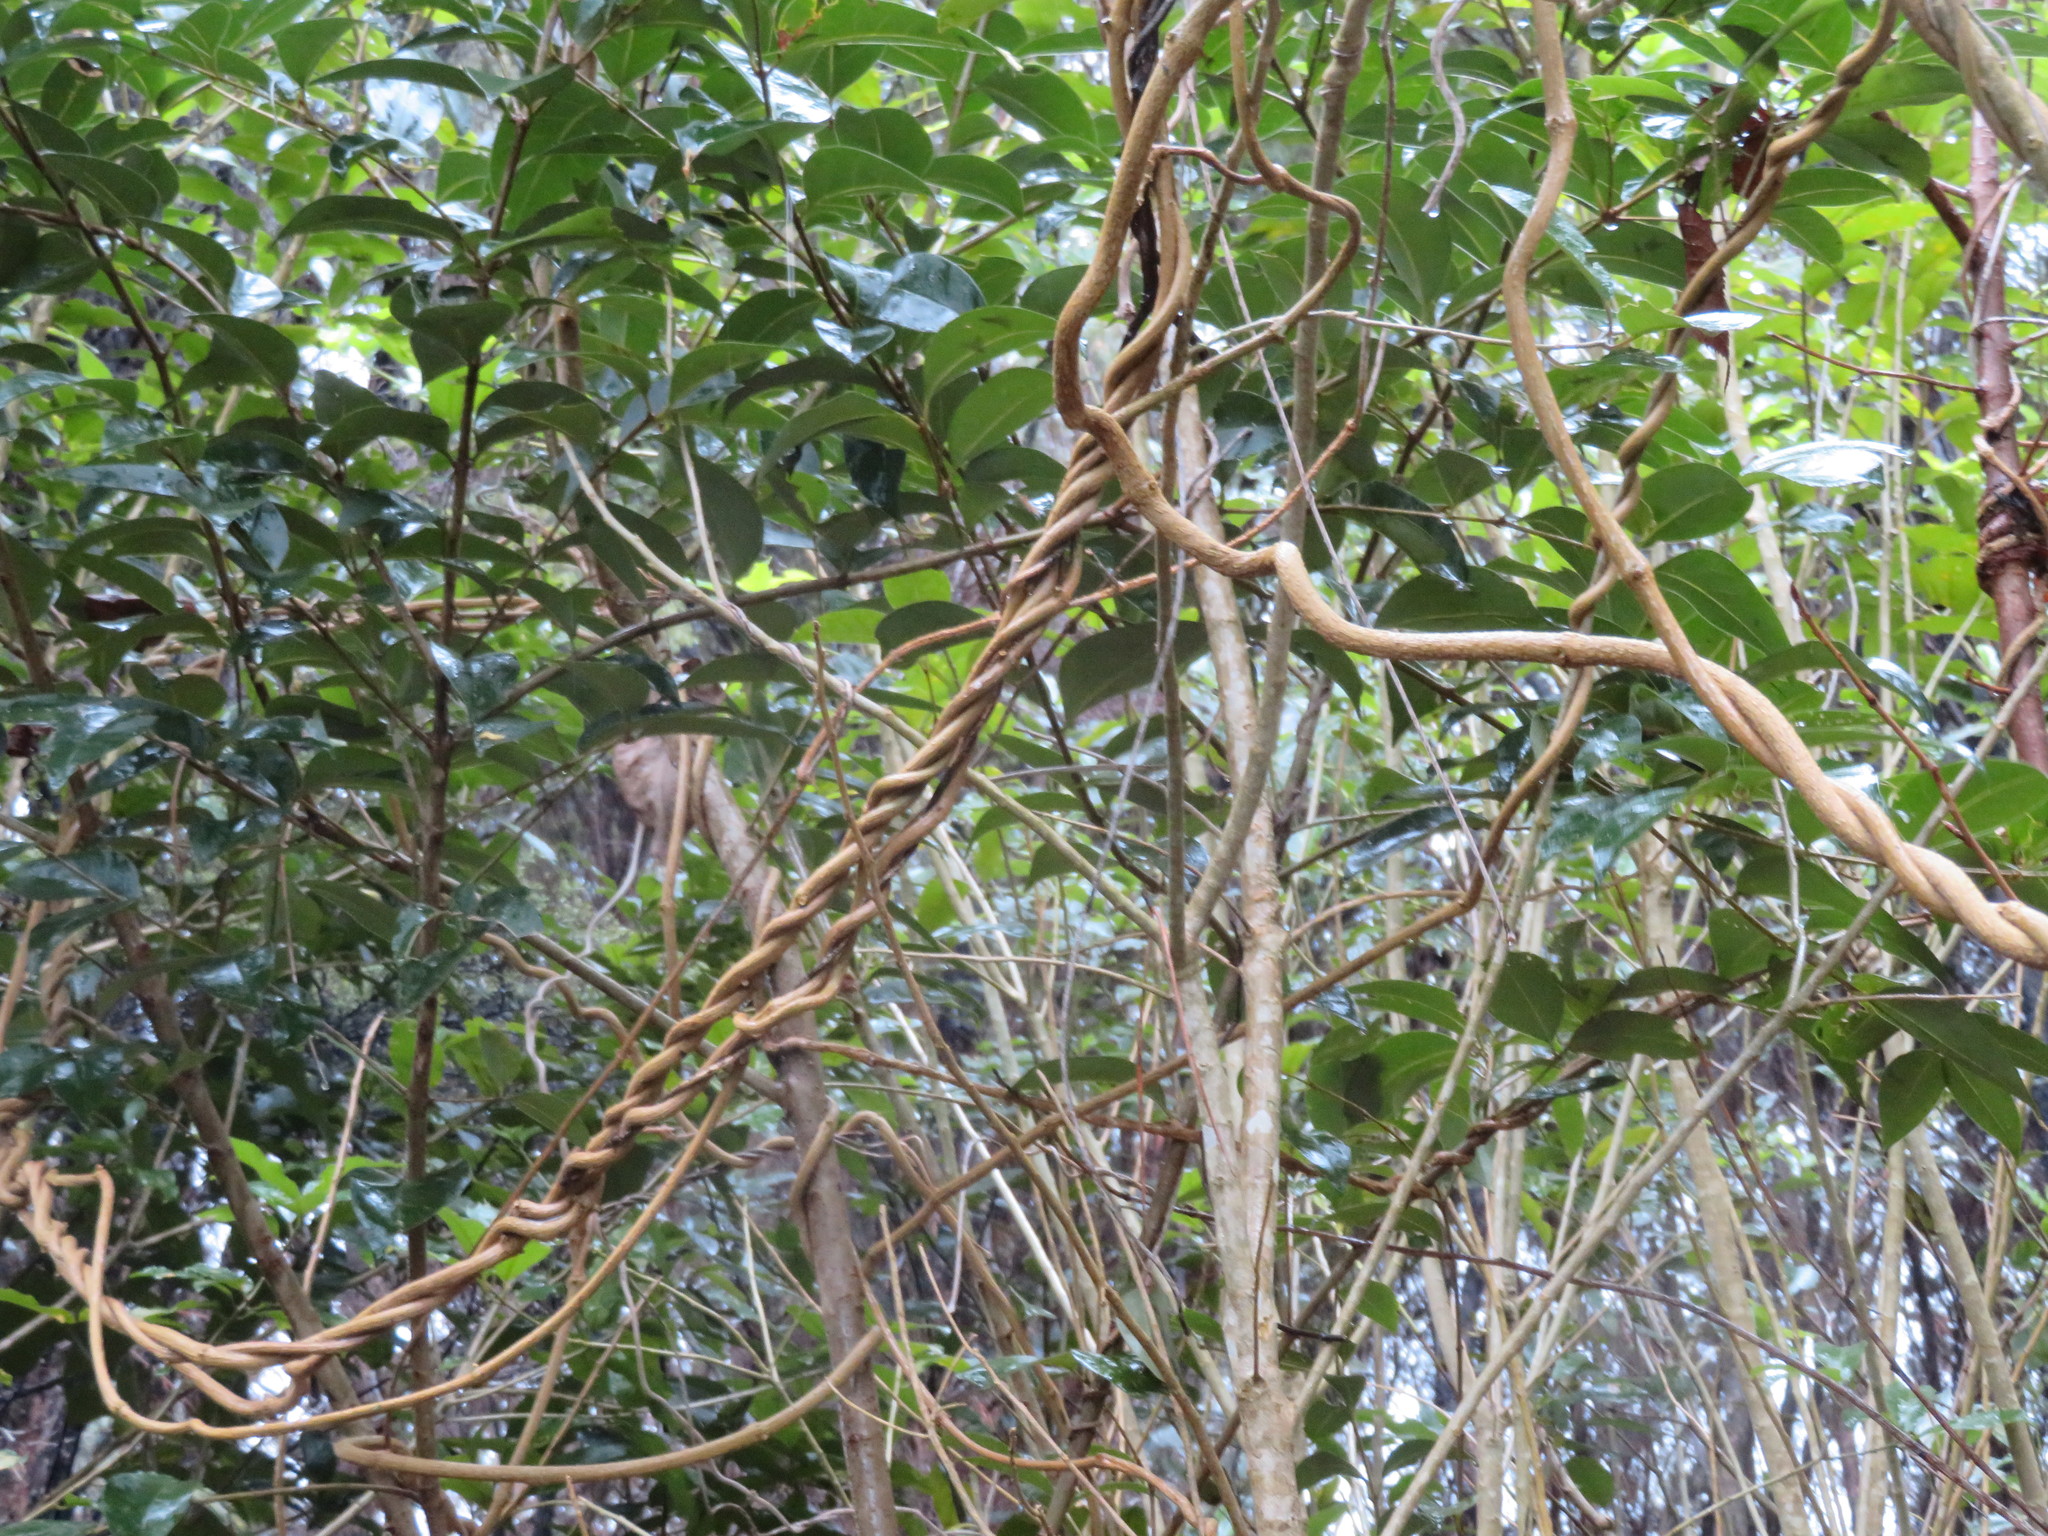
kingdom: Plantae
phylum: Tracheophyta
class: Magnoliopsida
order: Lamiales
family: Oleaceae
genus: Ligustrum
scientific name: Ligustrum lucidum
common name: Glossy privet
